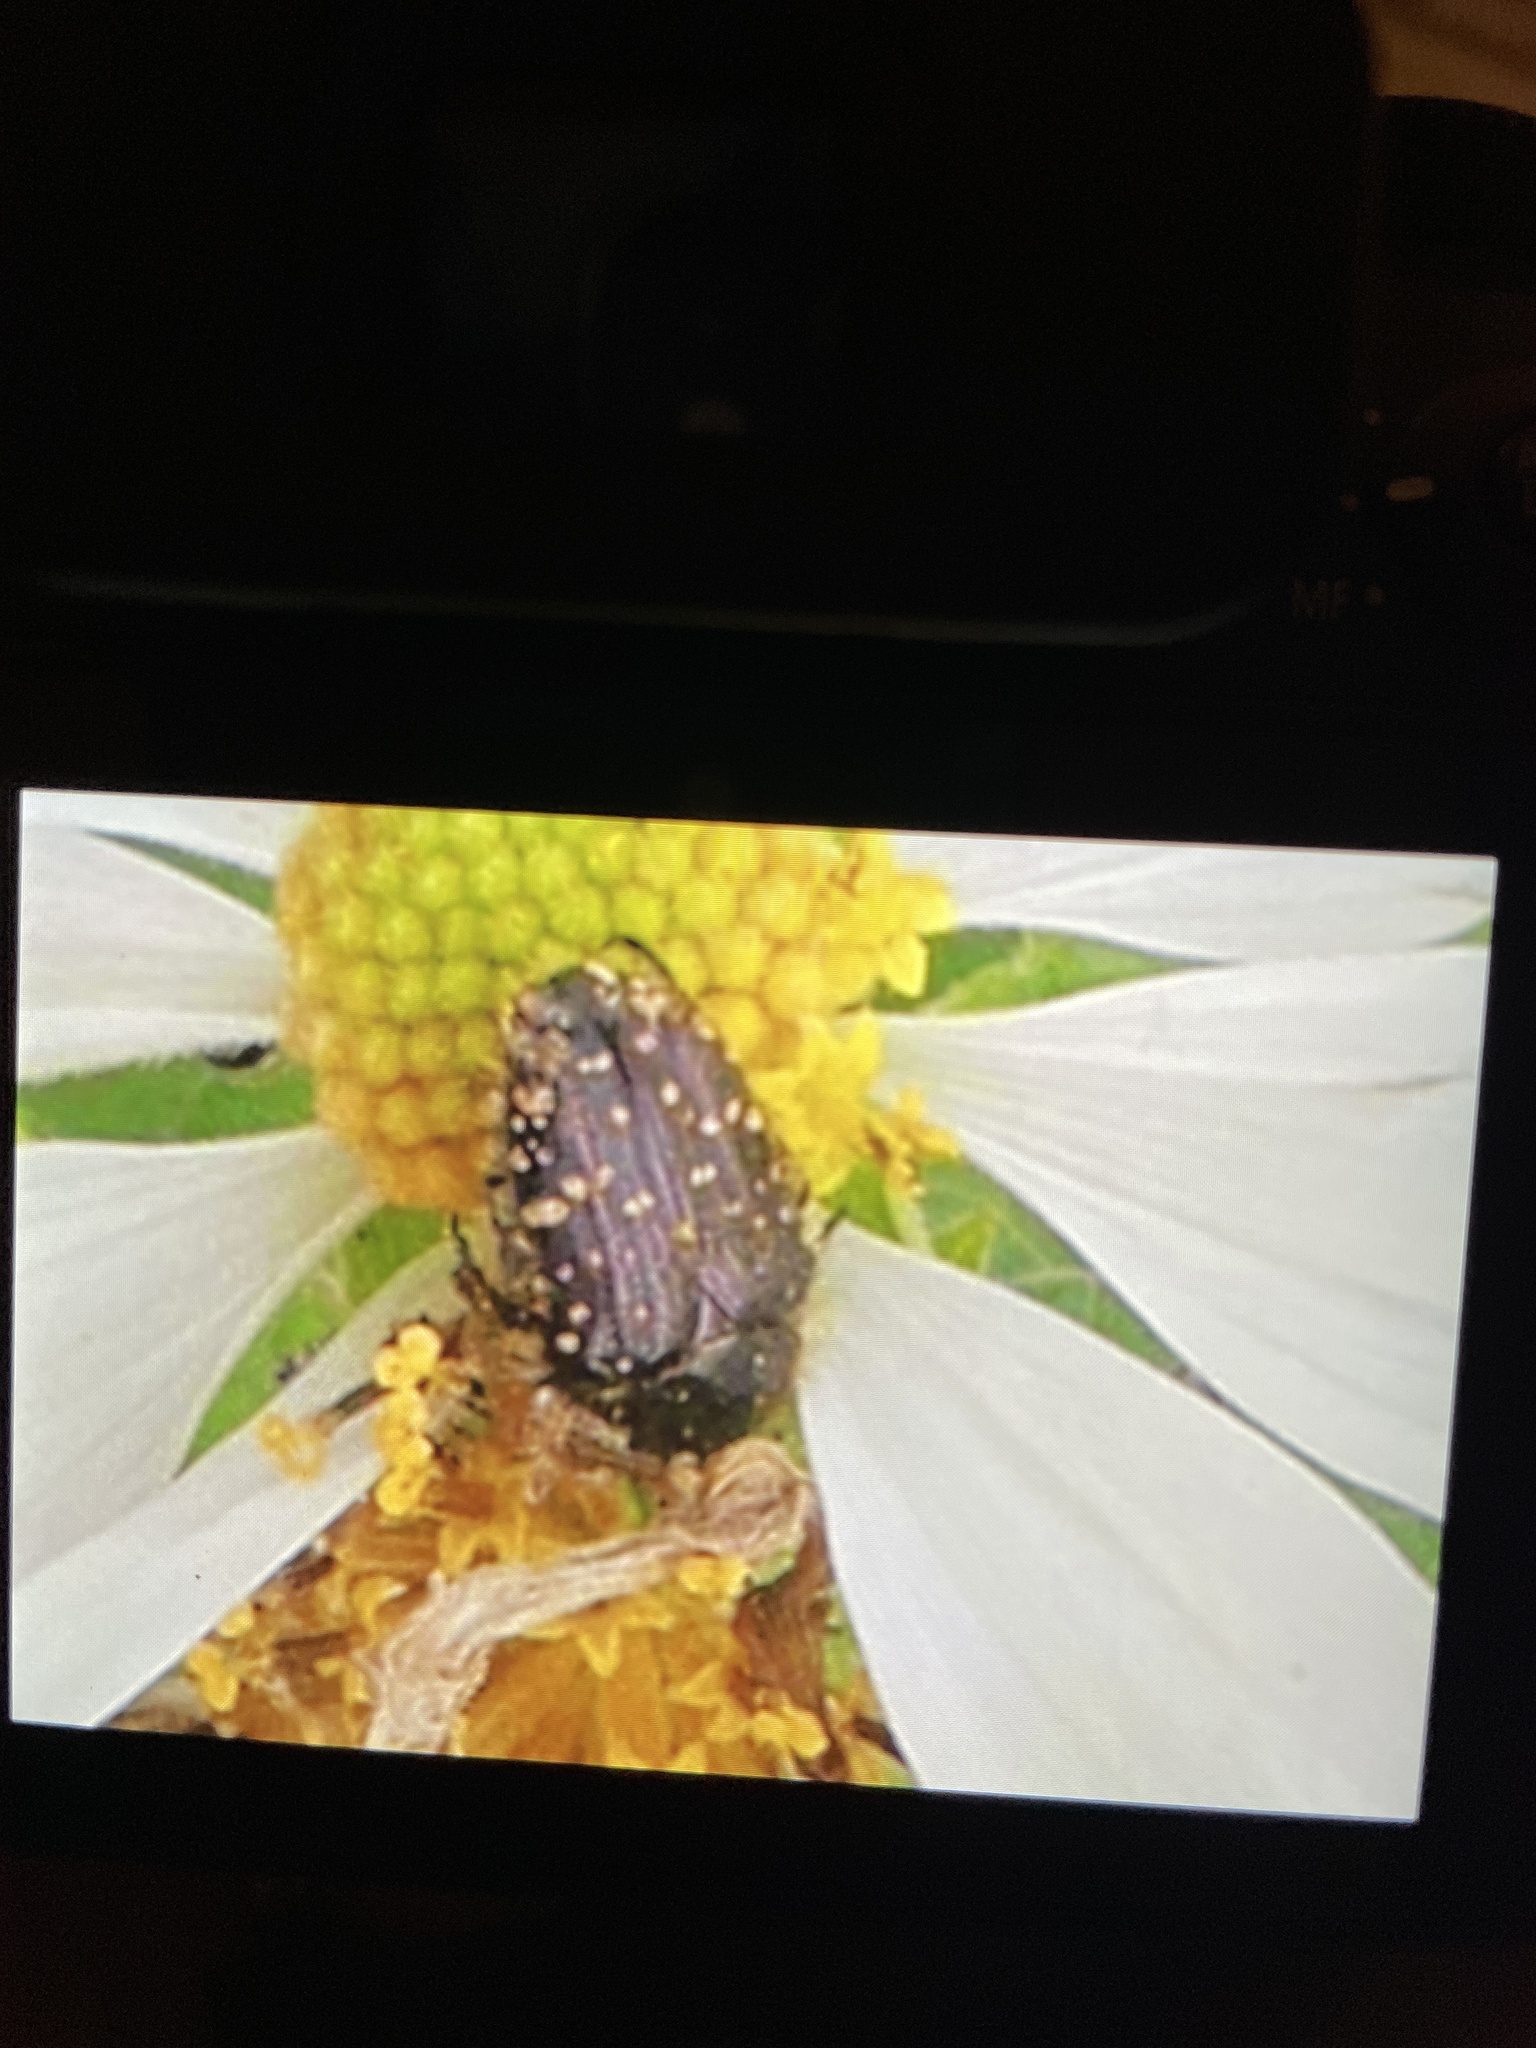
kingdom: Animalia
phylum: Arthropoda
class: Insecta
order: Coleoptera
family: Scarabaeidae
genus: Oxythyrea
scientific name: Oxythyrea funesta
